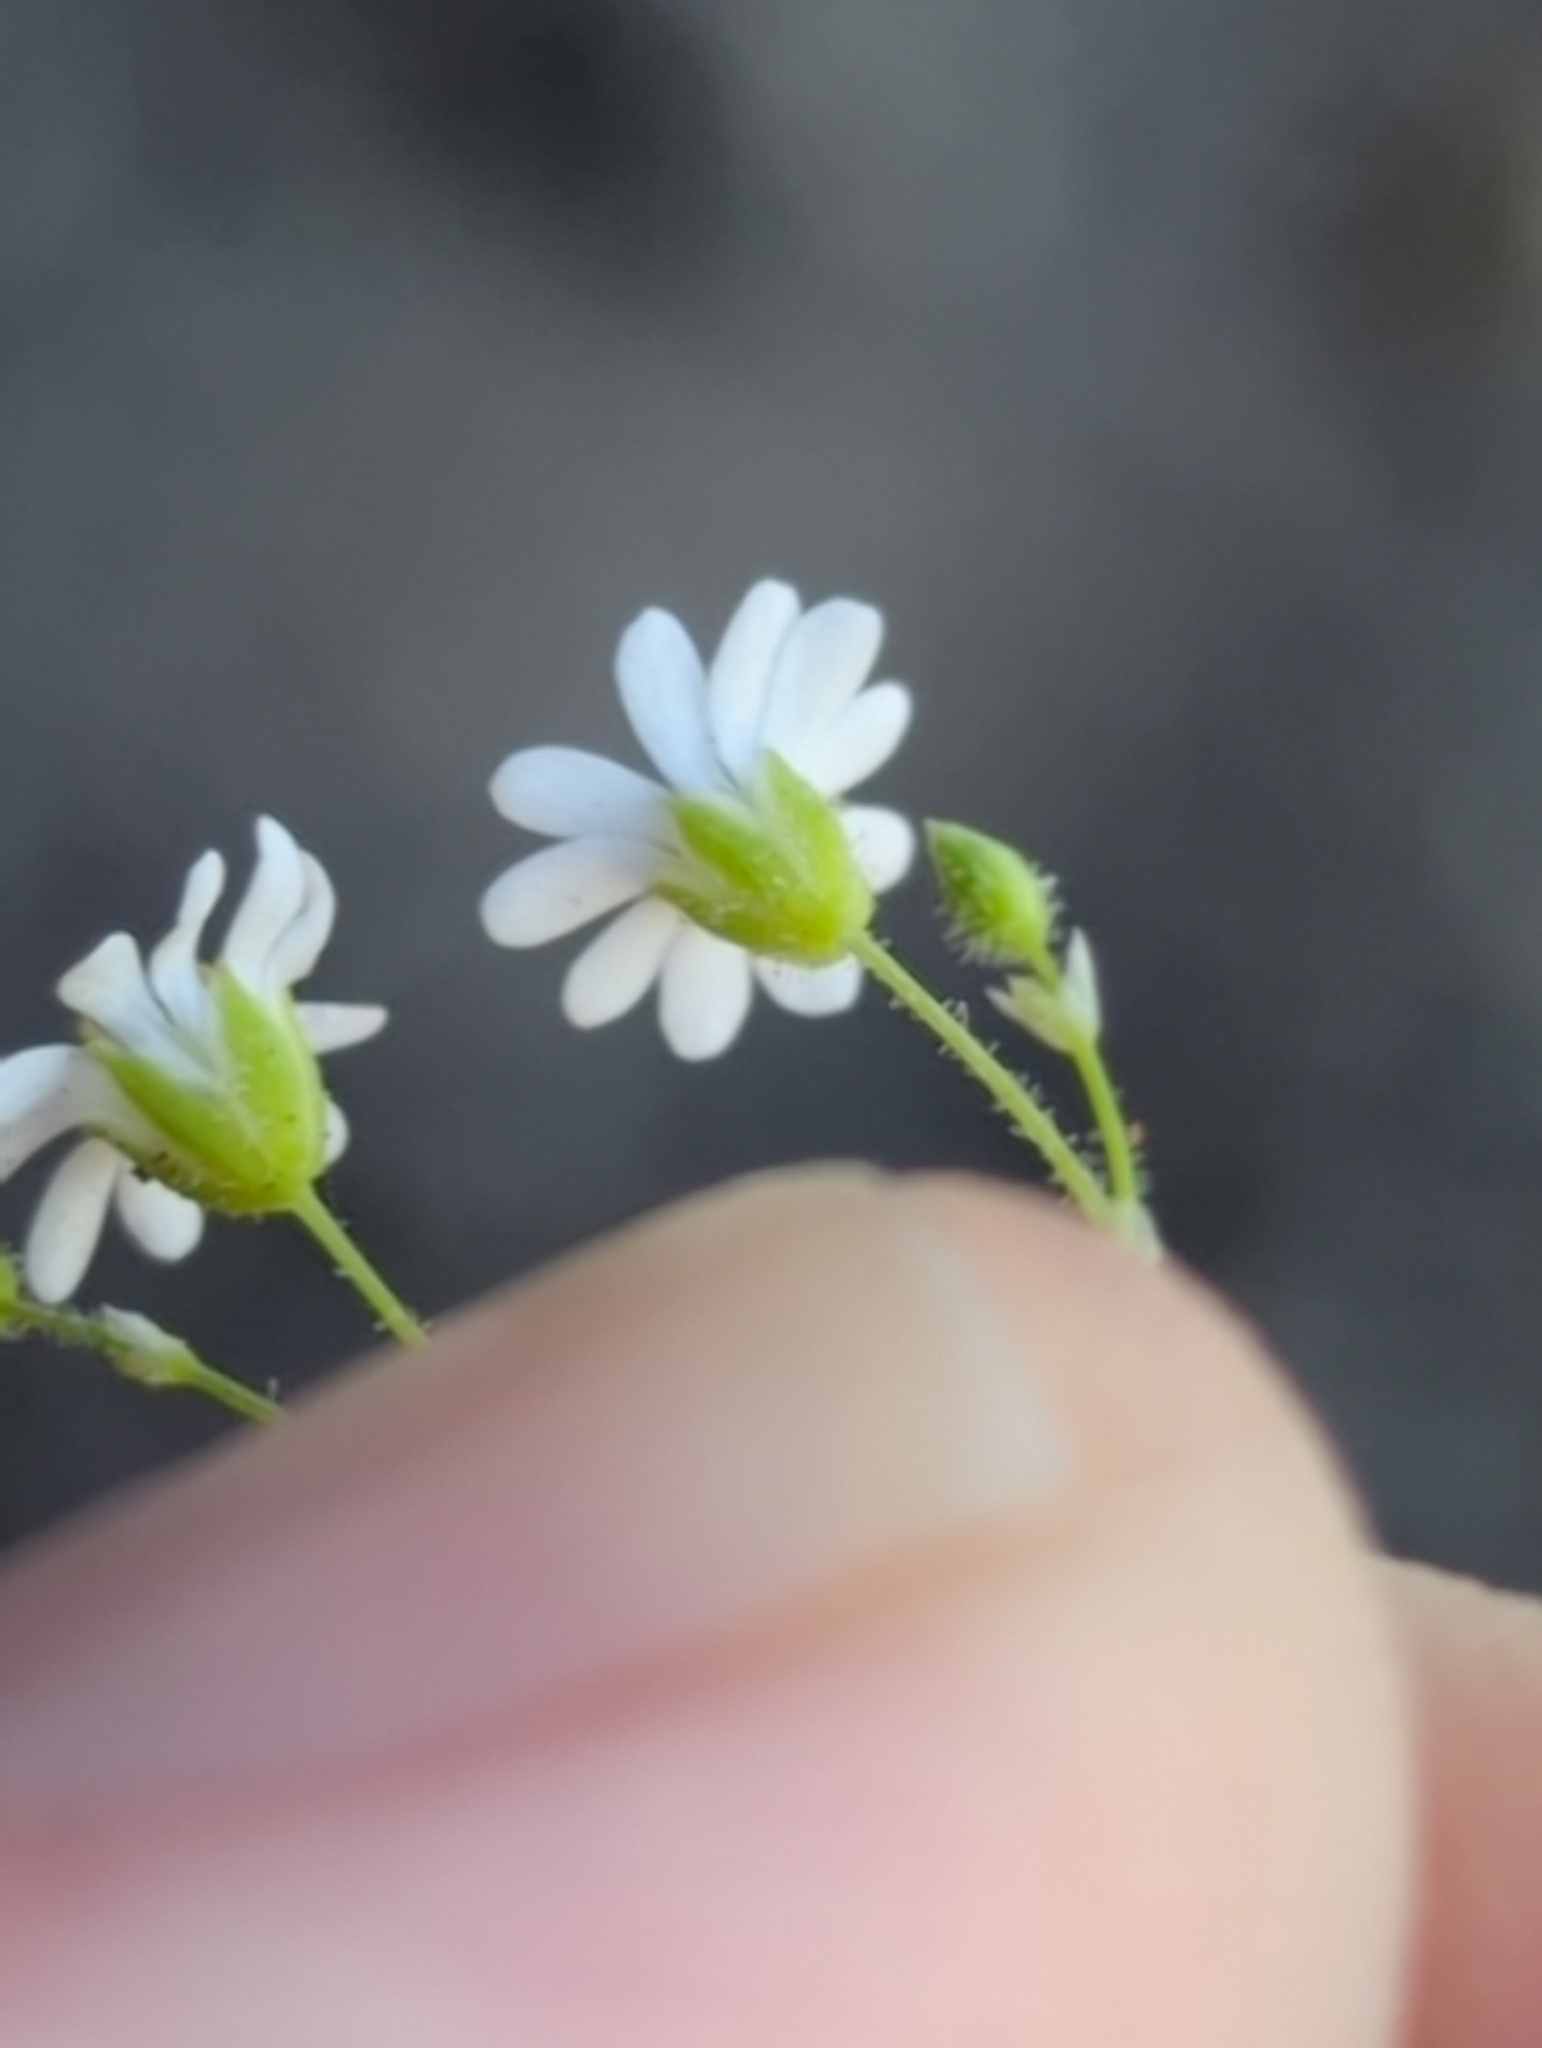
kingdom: Plantae
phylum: Tracheophyta
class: Magnoliopsida
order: Caryophyllales
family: Caryophyllaceae
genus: Drymaria
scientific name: Drymaria debilis
